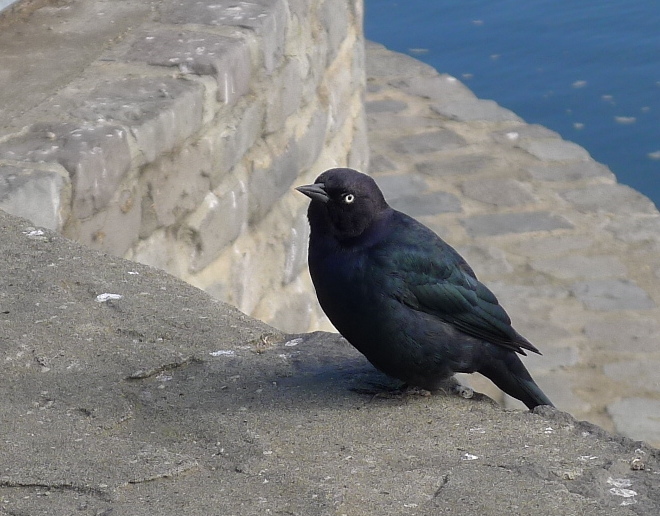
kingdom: Animalia
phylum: Chordata
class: Aves
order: Passeriformes
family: Icteridae
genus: Euphagus
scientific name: Euphagus cyanocephalus
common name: Brewer's blackbird
